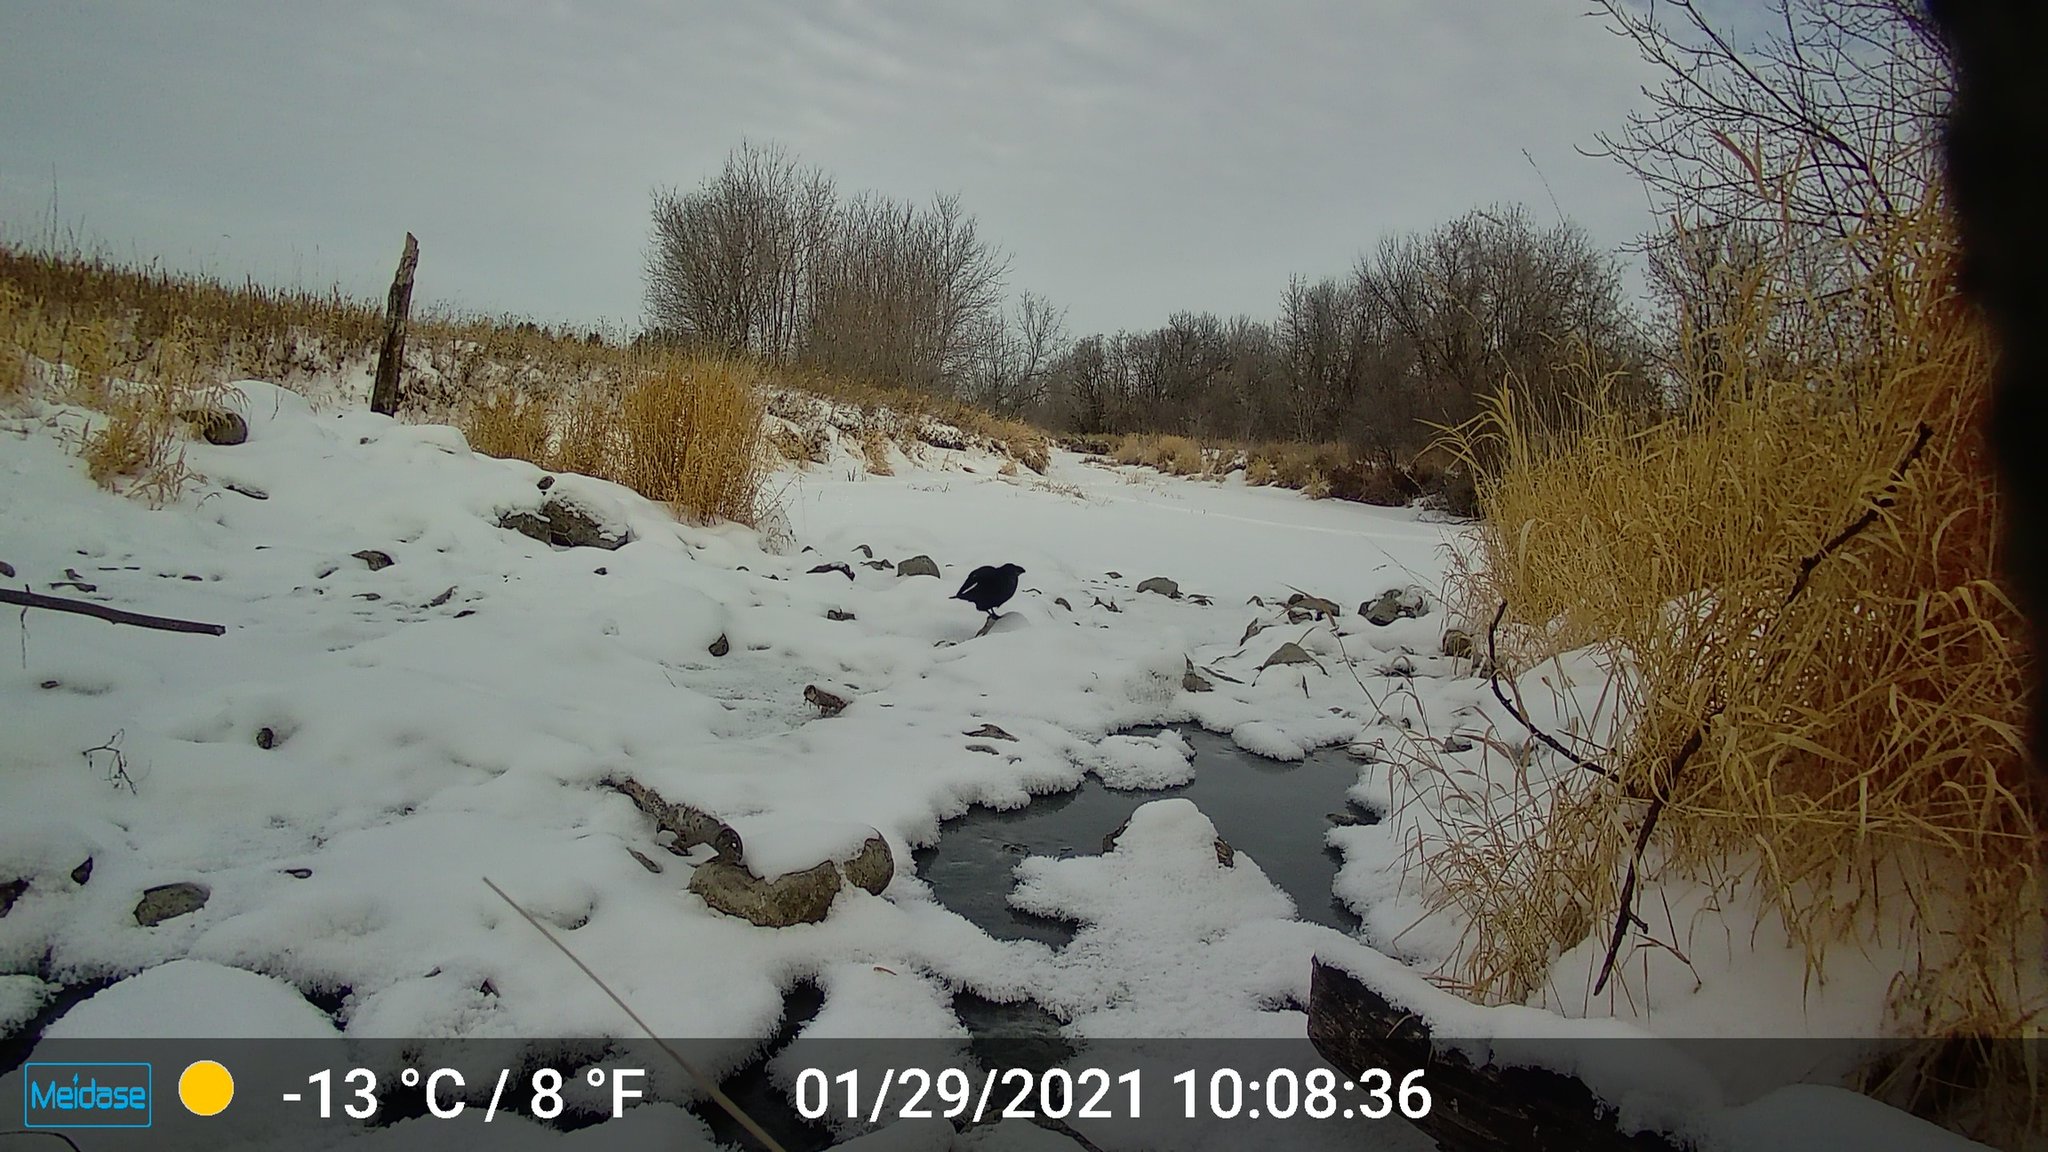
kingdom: Animalia
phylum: Chordata
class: Aves
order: Passeriformes
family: Corvidae
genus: Corvus
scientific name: Corvus corax
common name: Common raven
